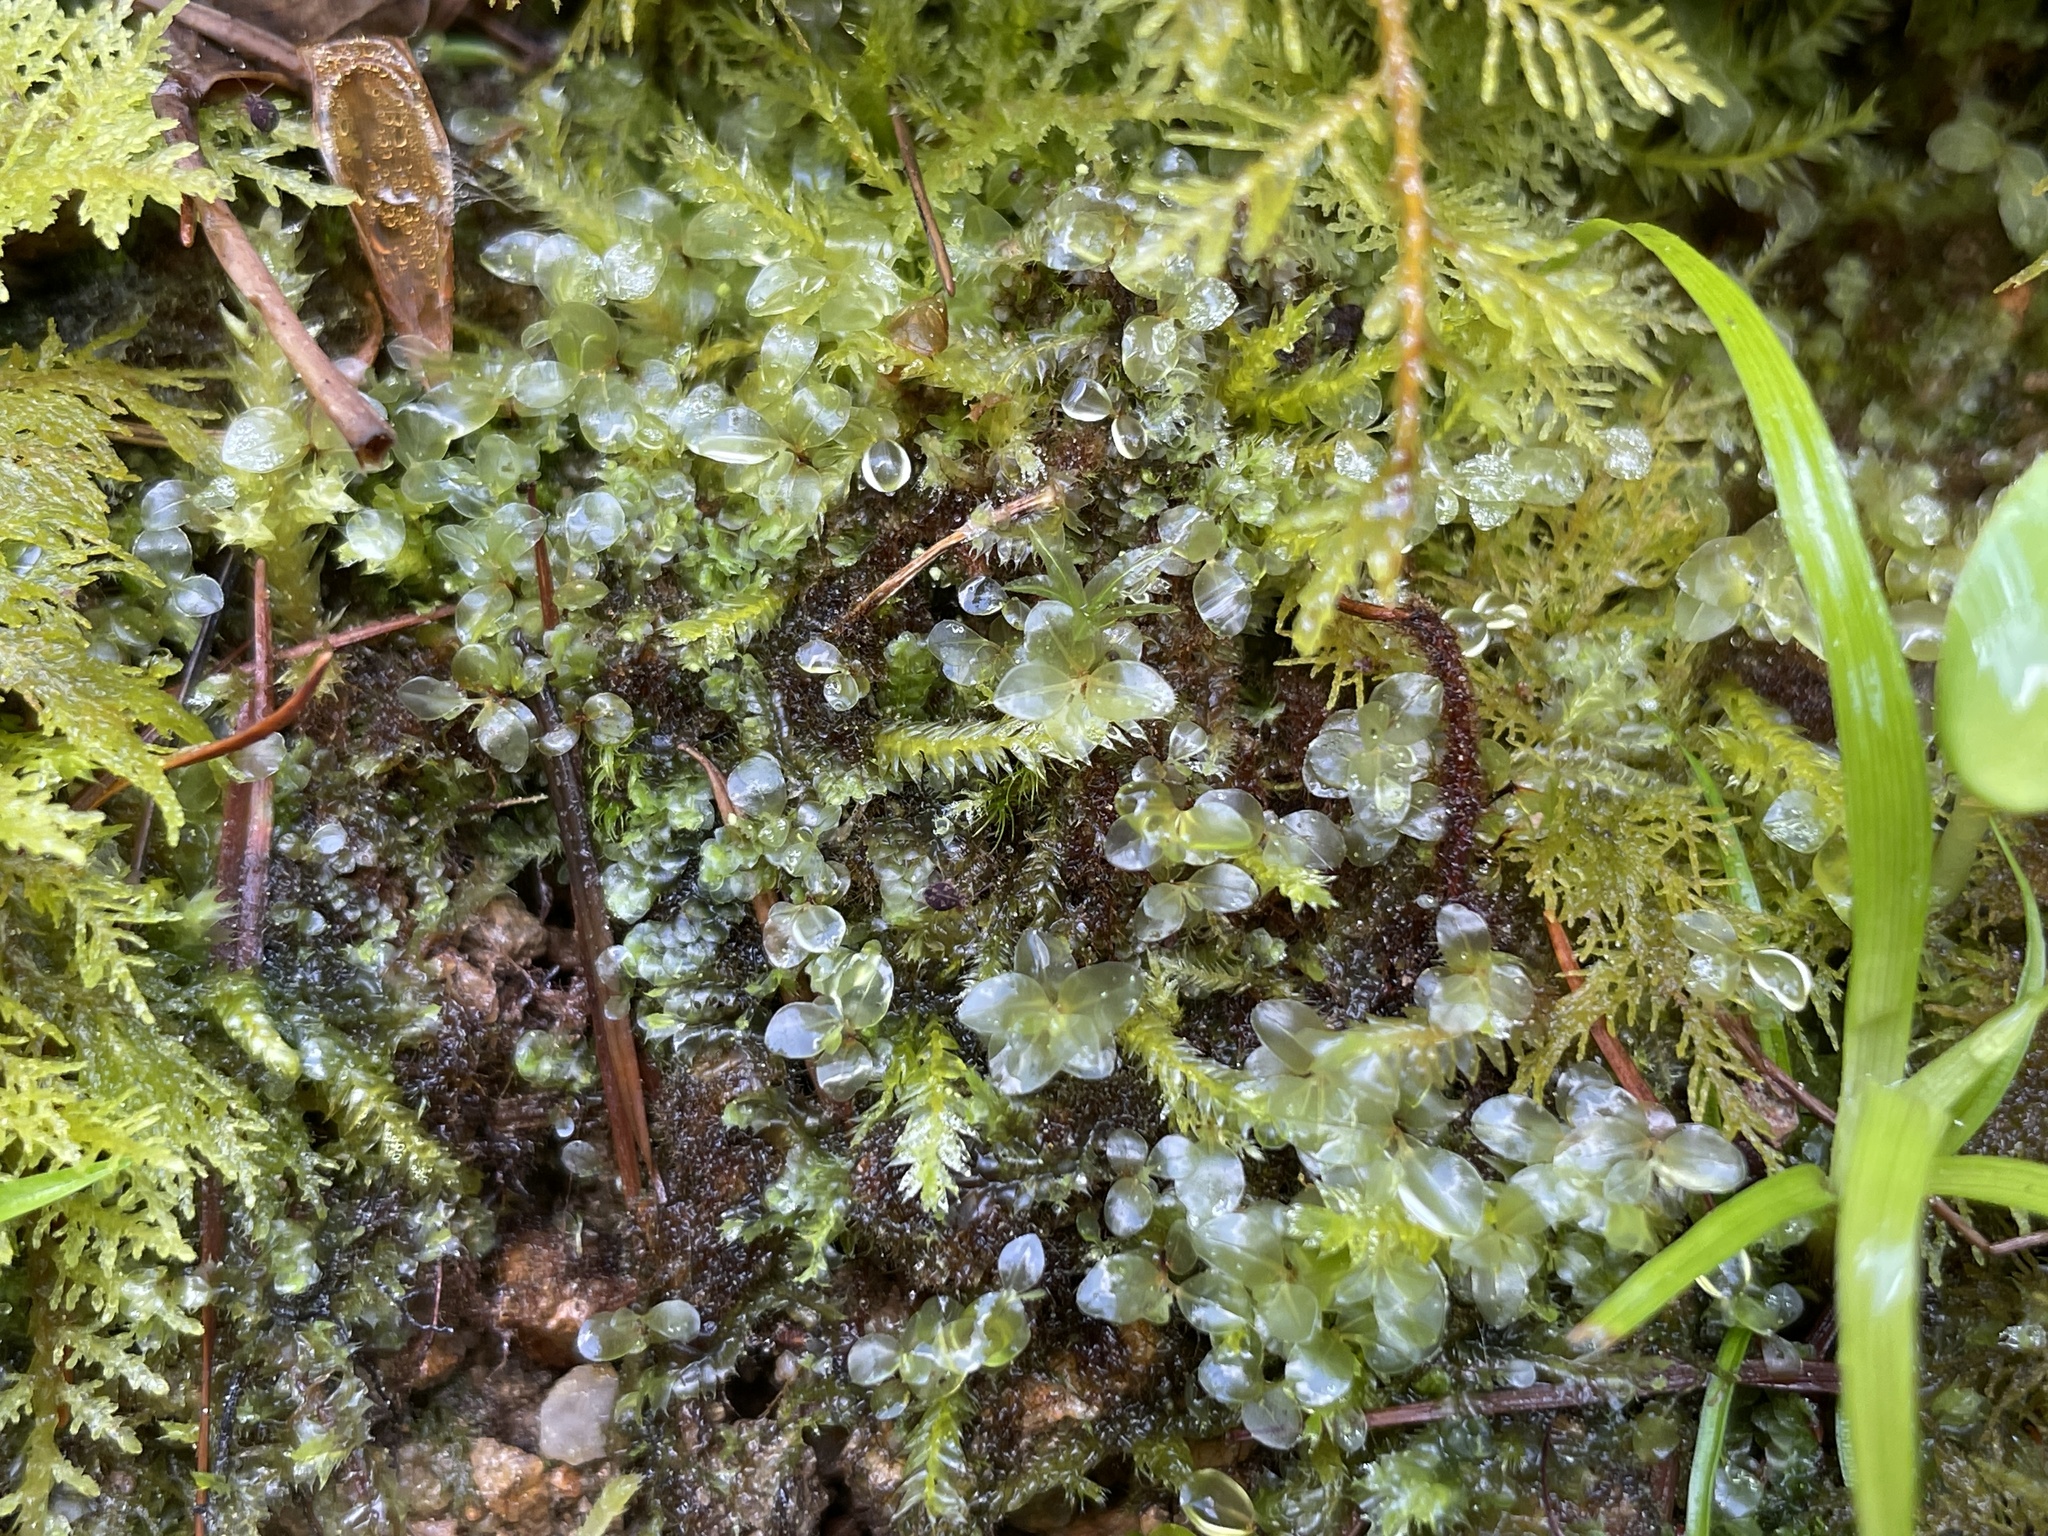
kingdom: Plantae
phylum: Bryophyta
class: Bryopsida
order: Bryales
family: Mniaceae
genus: Rhizomnium
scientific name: Rhizomnium punctatum
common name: Dotted leafy moss
